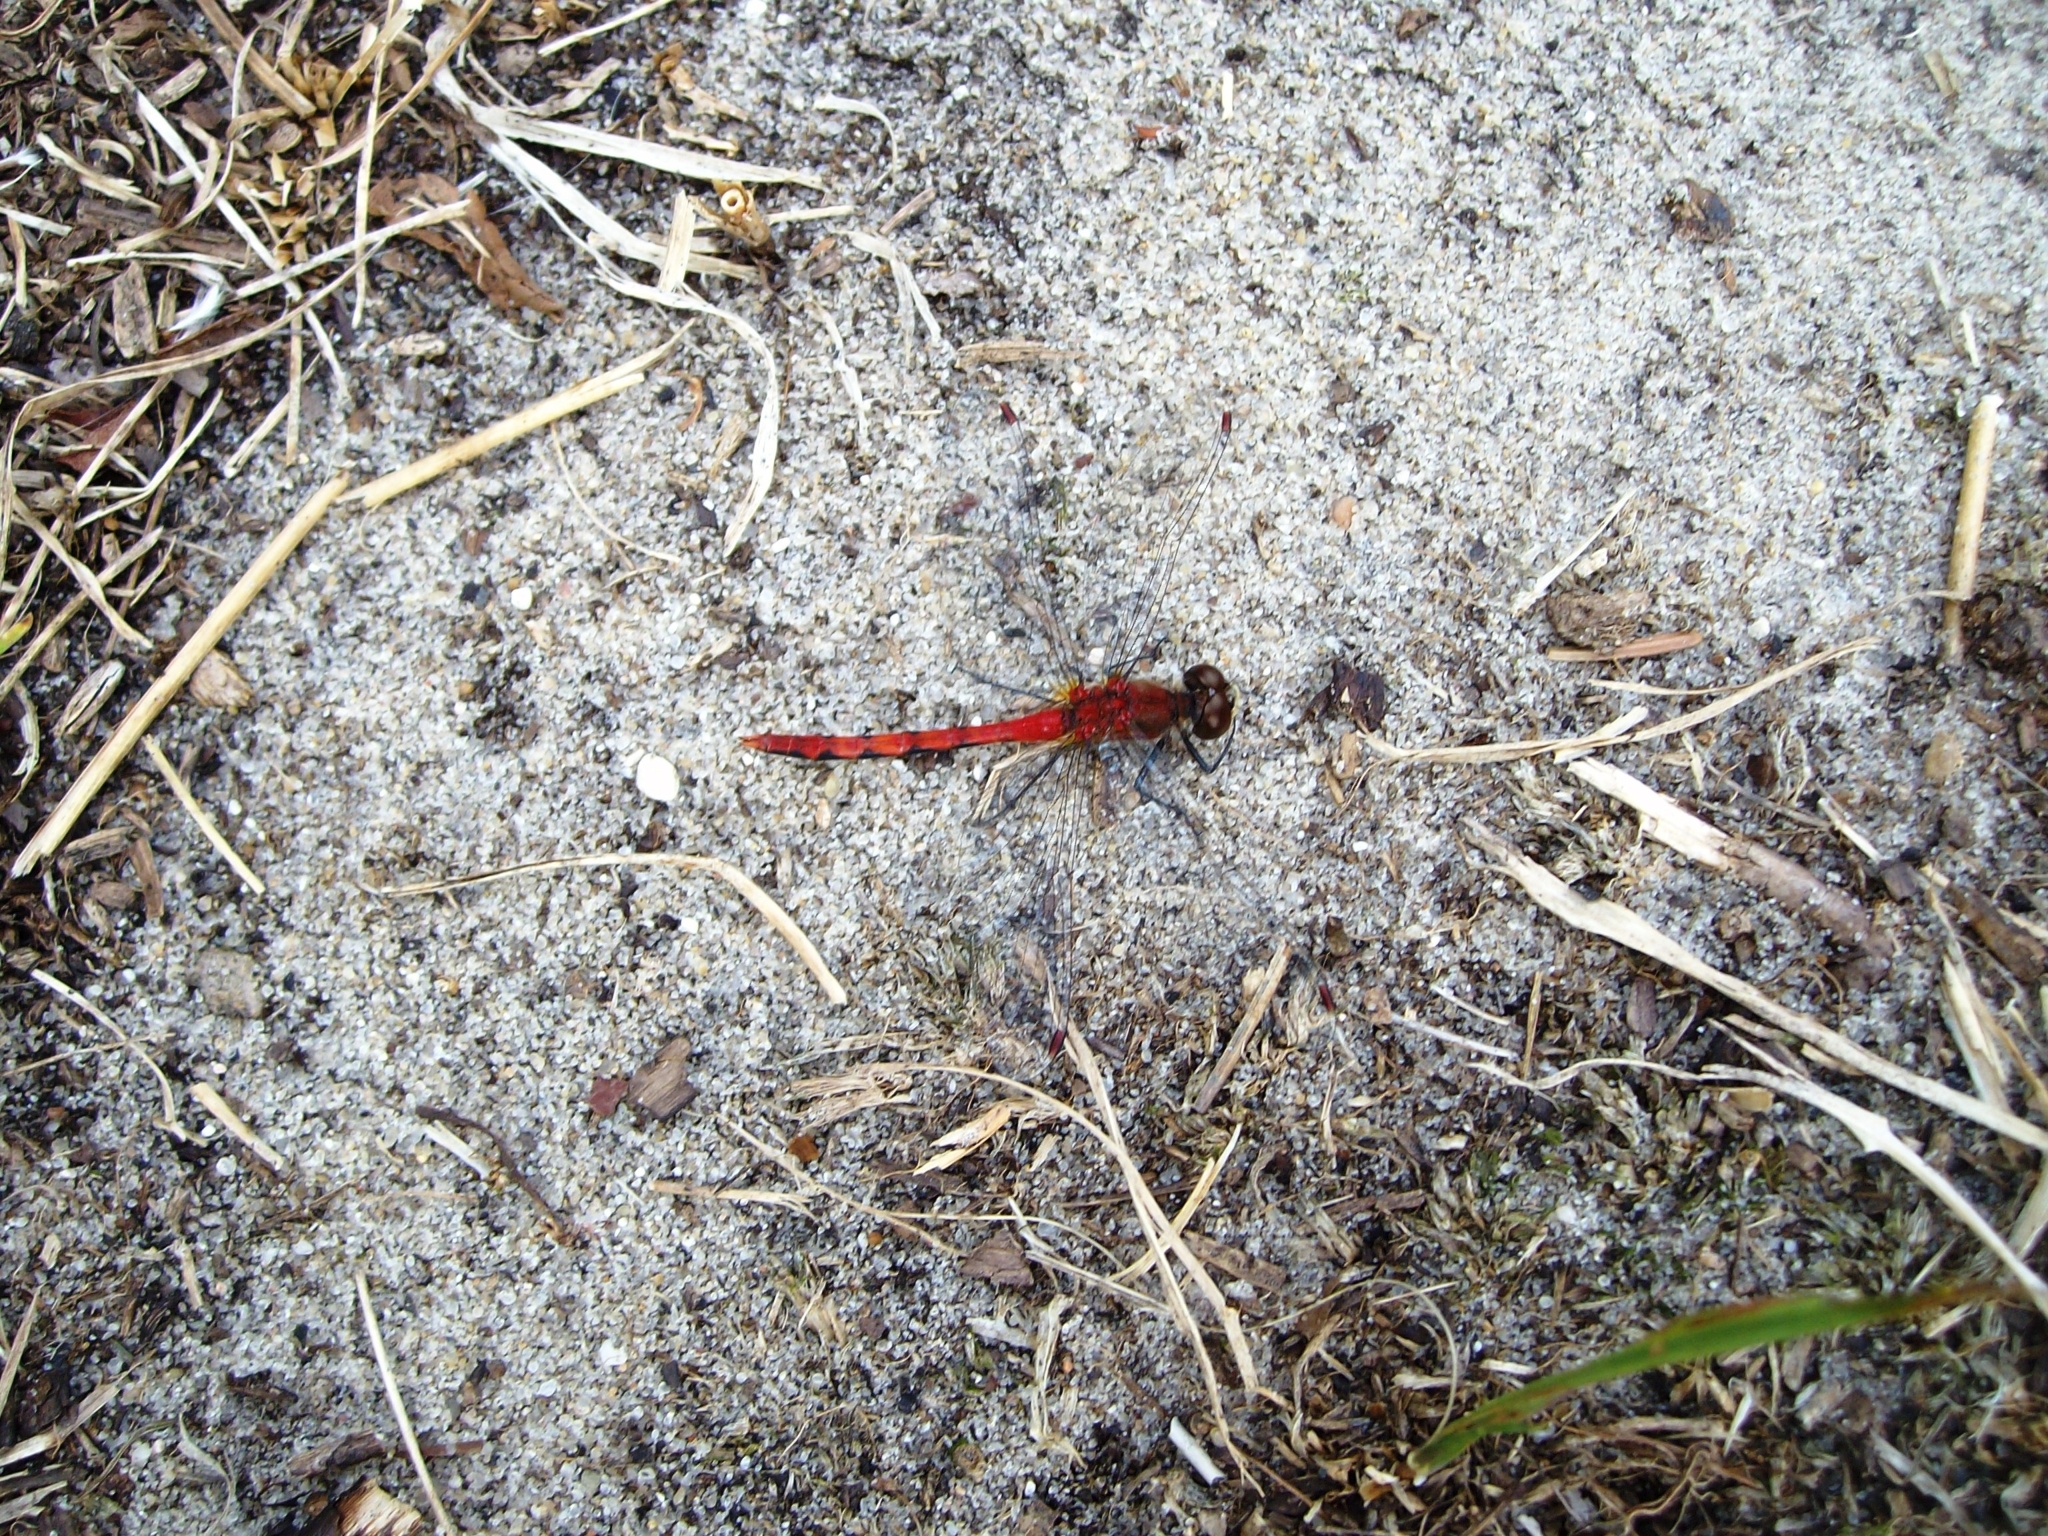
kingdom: Animalia
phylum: Arthropoda
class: Insecta
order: Odonata
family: Libellulidae
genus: Sympetrum
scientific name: Sympetrum obtrusum
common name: White-faced meadowhawk
